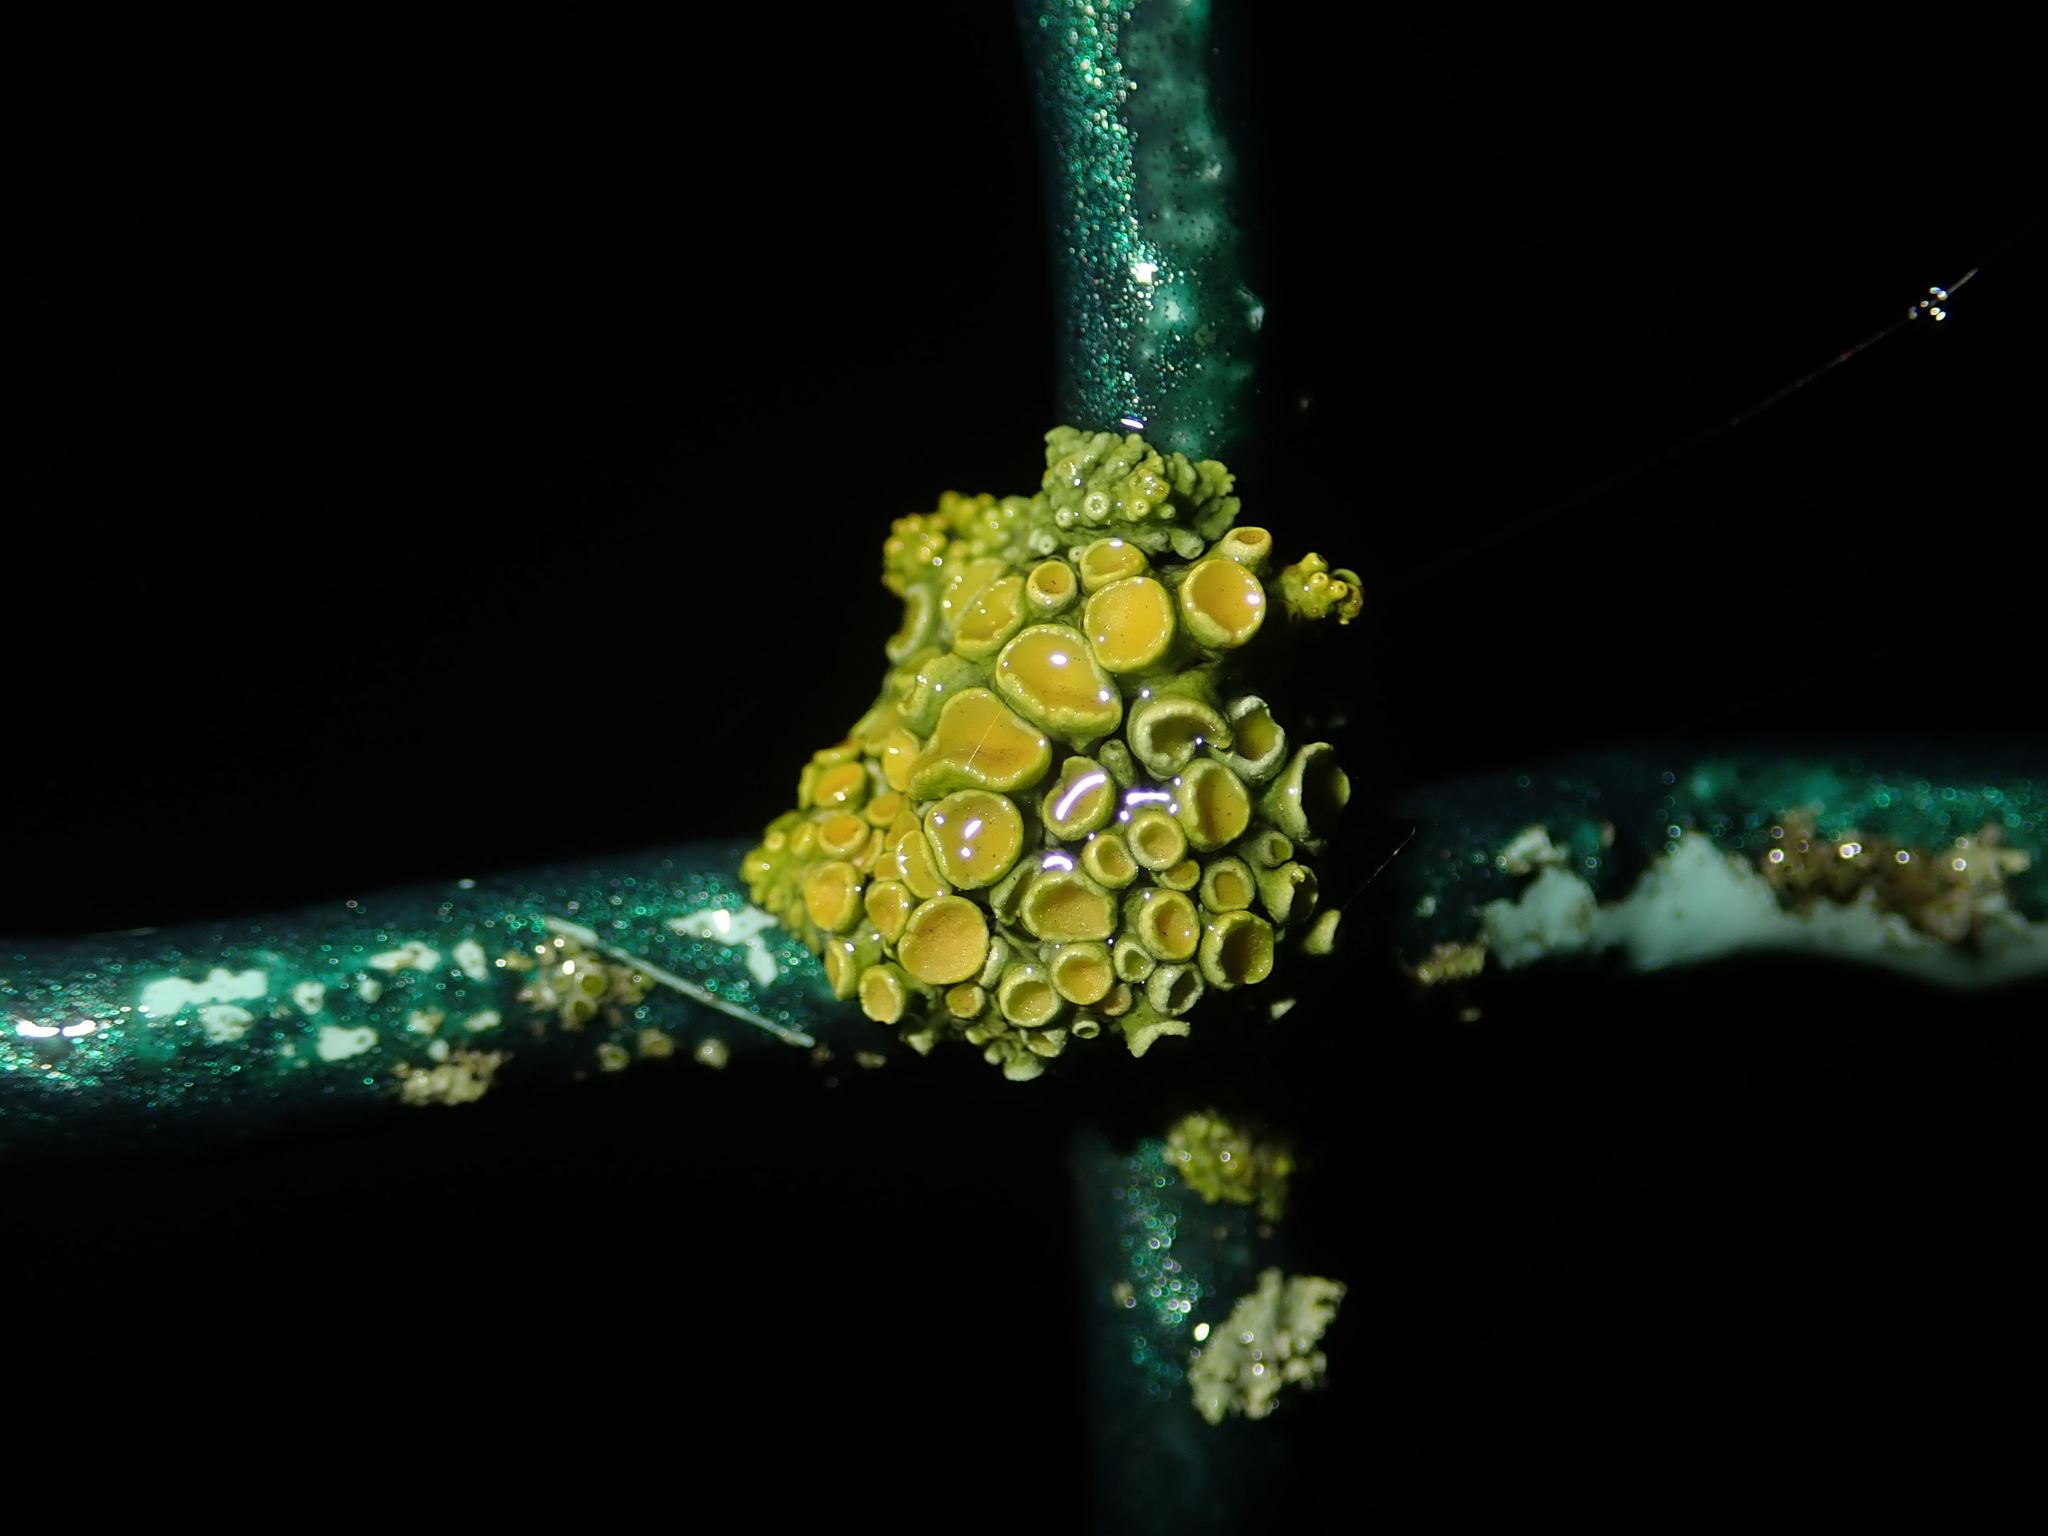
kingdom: Fungi
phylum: Ascomycota
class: Lecanoromycetes
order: Teloschistales
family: Teloschistaceae
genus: Xanthoria
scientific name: Xanthoria parietina
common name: Common orange lichen
